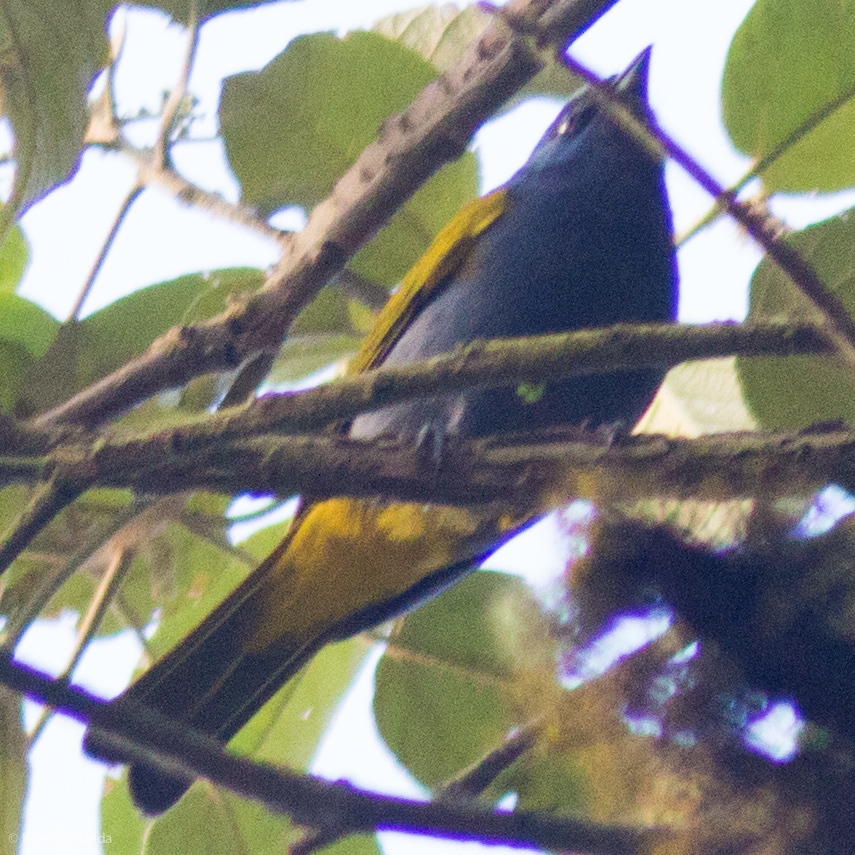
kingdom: Animalia
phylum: Chordata
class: Aves
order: Passeriformes
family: Thraupidae
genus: Sporathraupis
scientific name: Sporathraupis cyanocephala
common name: Blue-capped tanager
